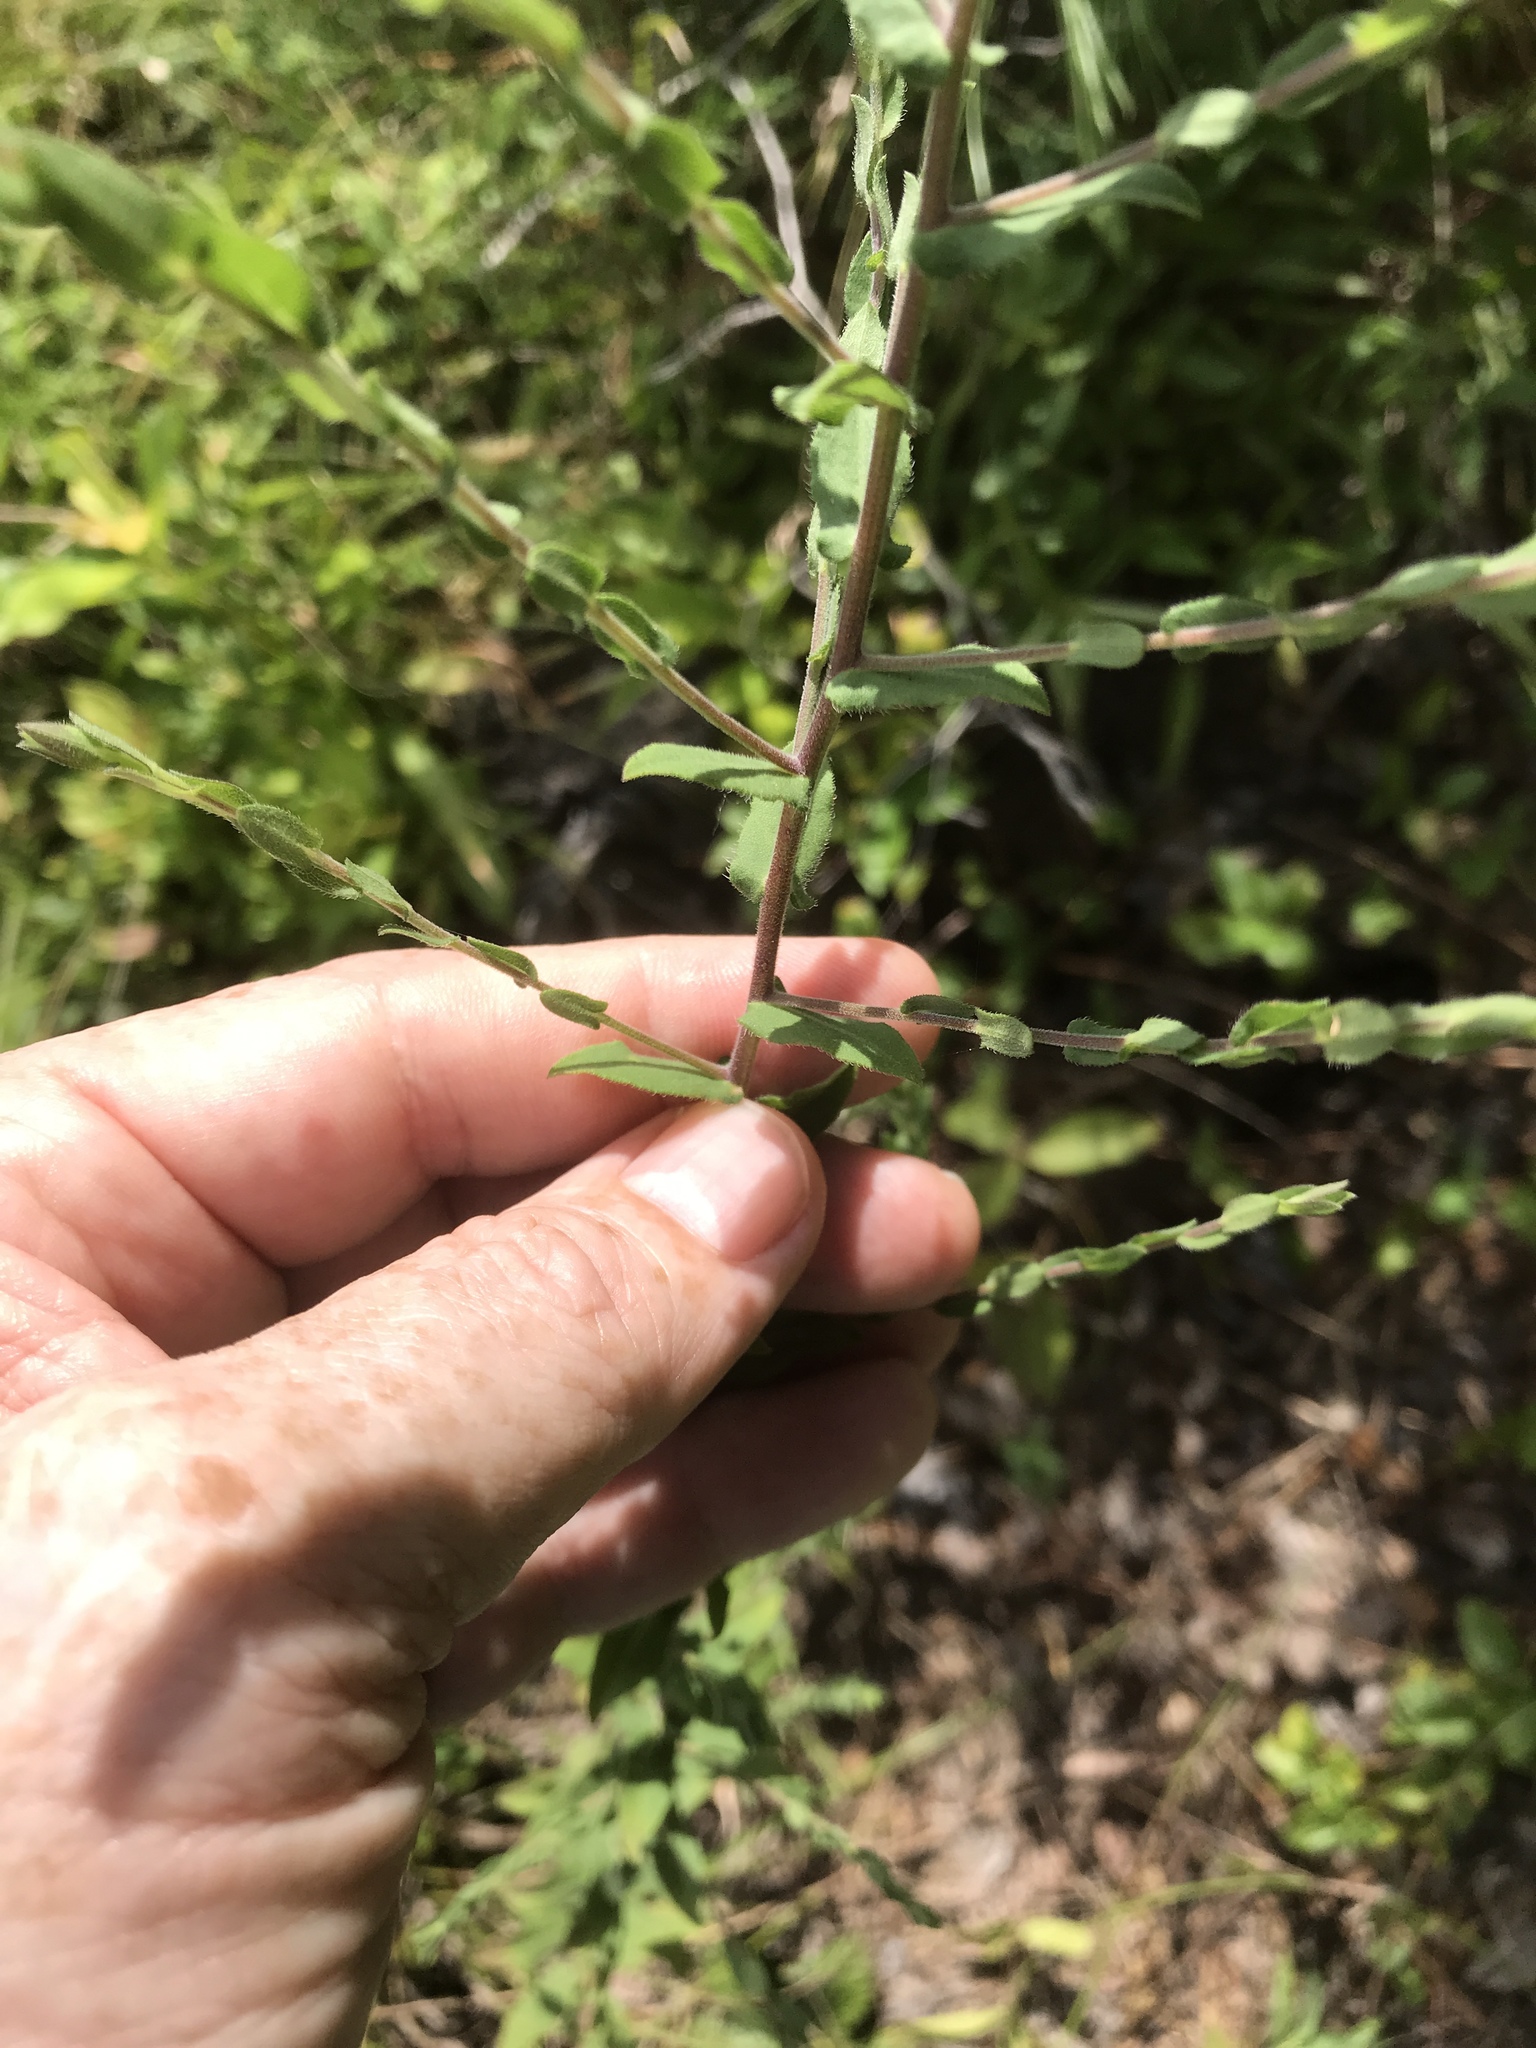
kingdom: Plantae
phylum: Tracheophyta
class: Magnoliopsida
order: Asterales
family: Asteraceae
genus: Symphyotrichum
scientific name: Symphyotrichum patens
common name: Late purple aster
